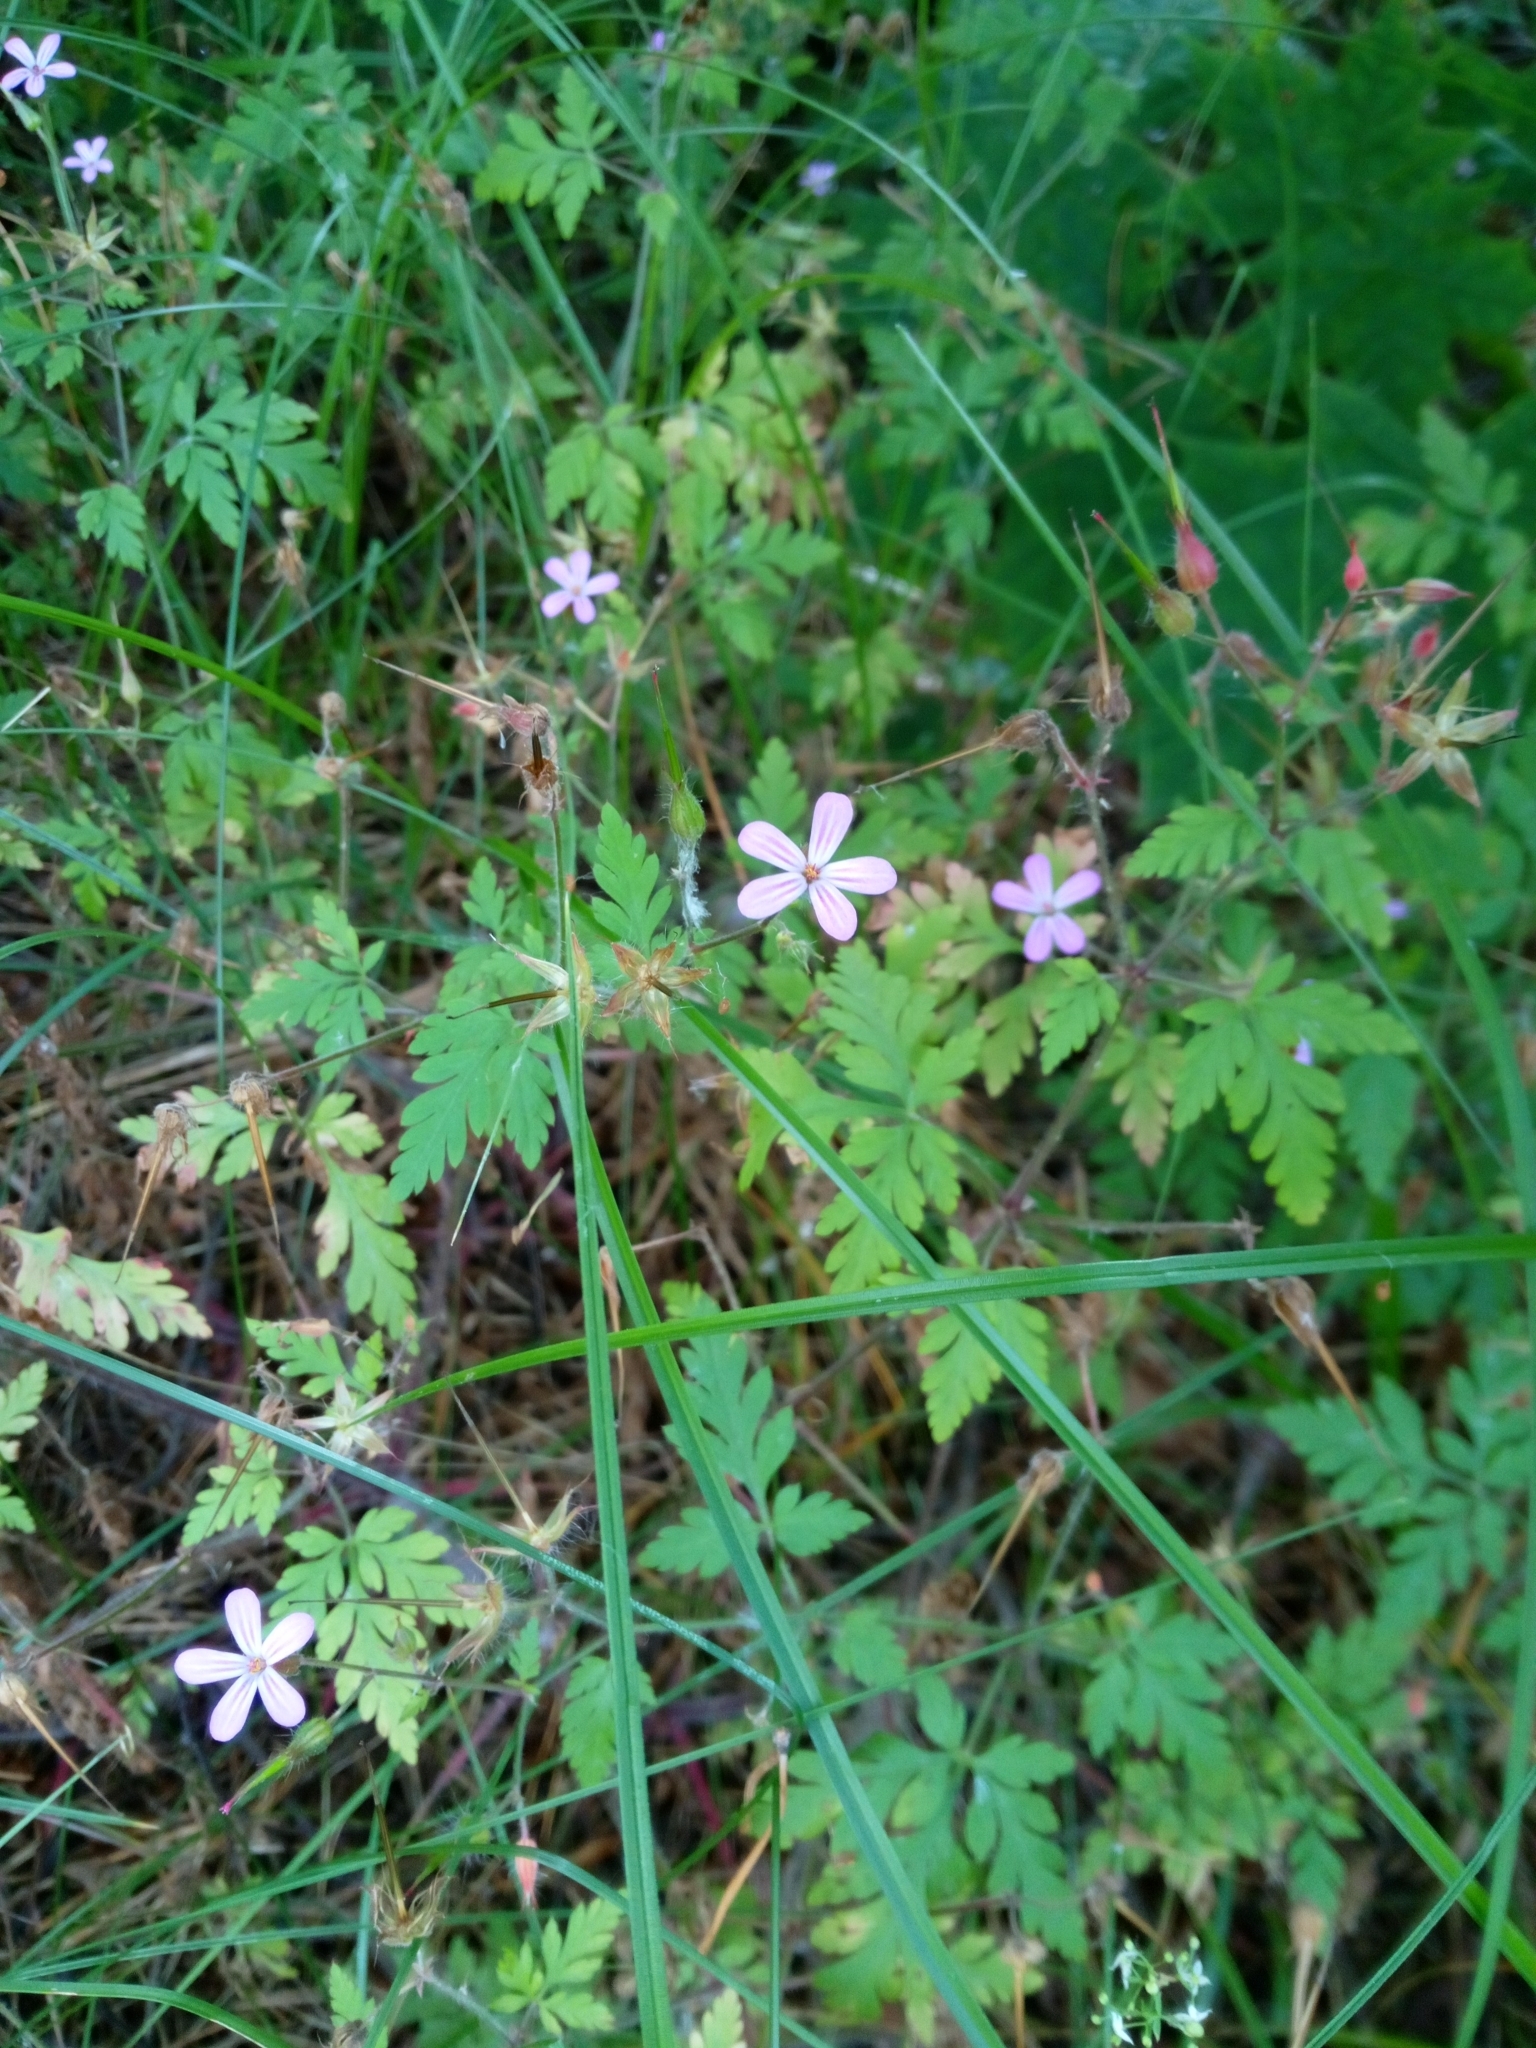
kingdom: Plantae
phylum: Tracheophyta
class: Magnoliopsida
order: Geraniales
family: Geraniaceae
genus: Geranium
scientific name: Geranium robertianum
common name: Herb-robert
